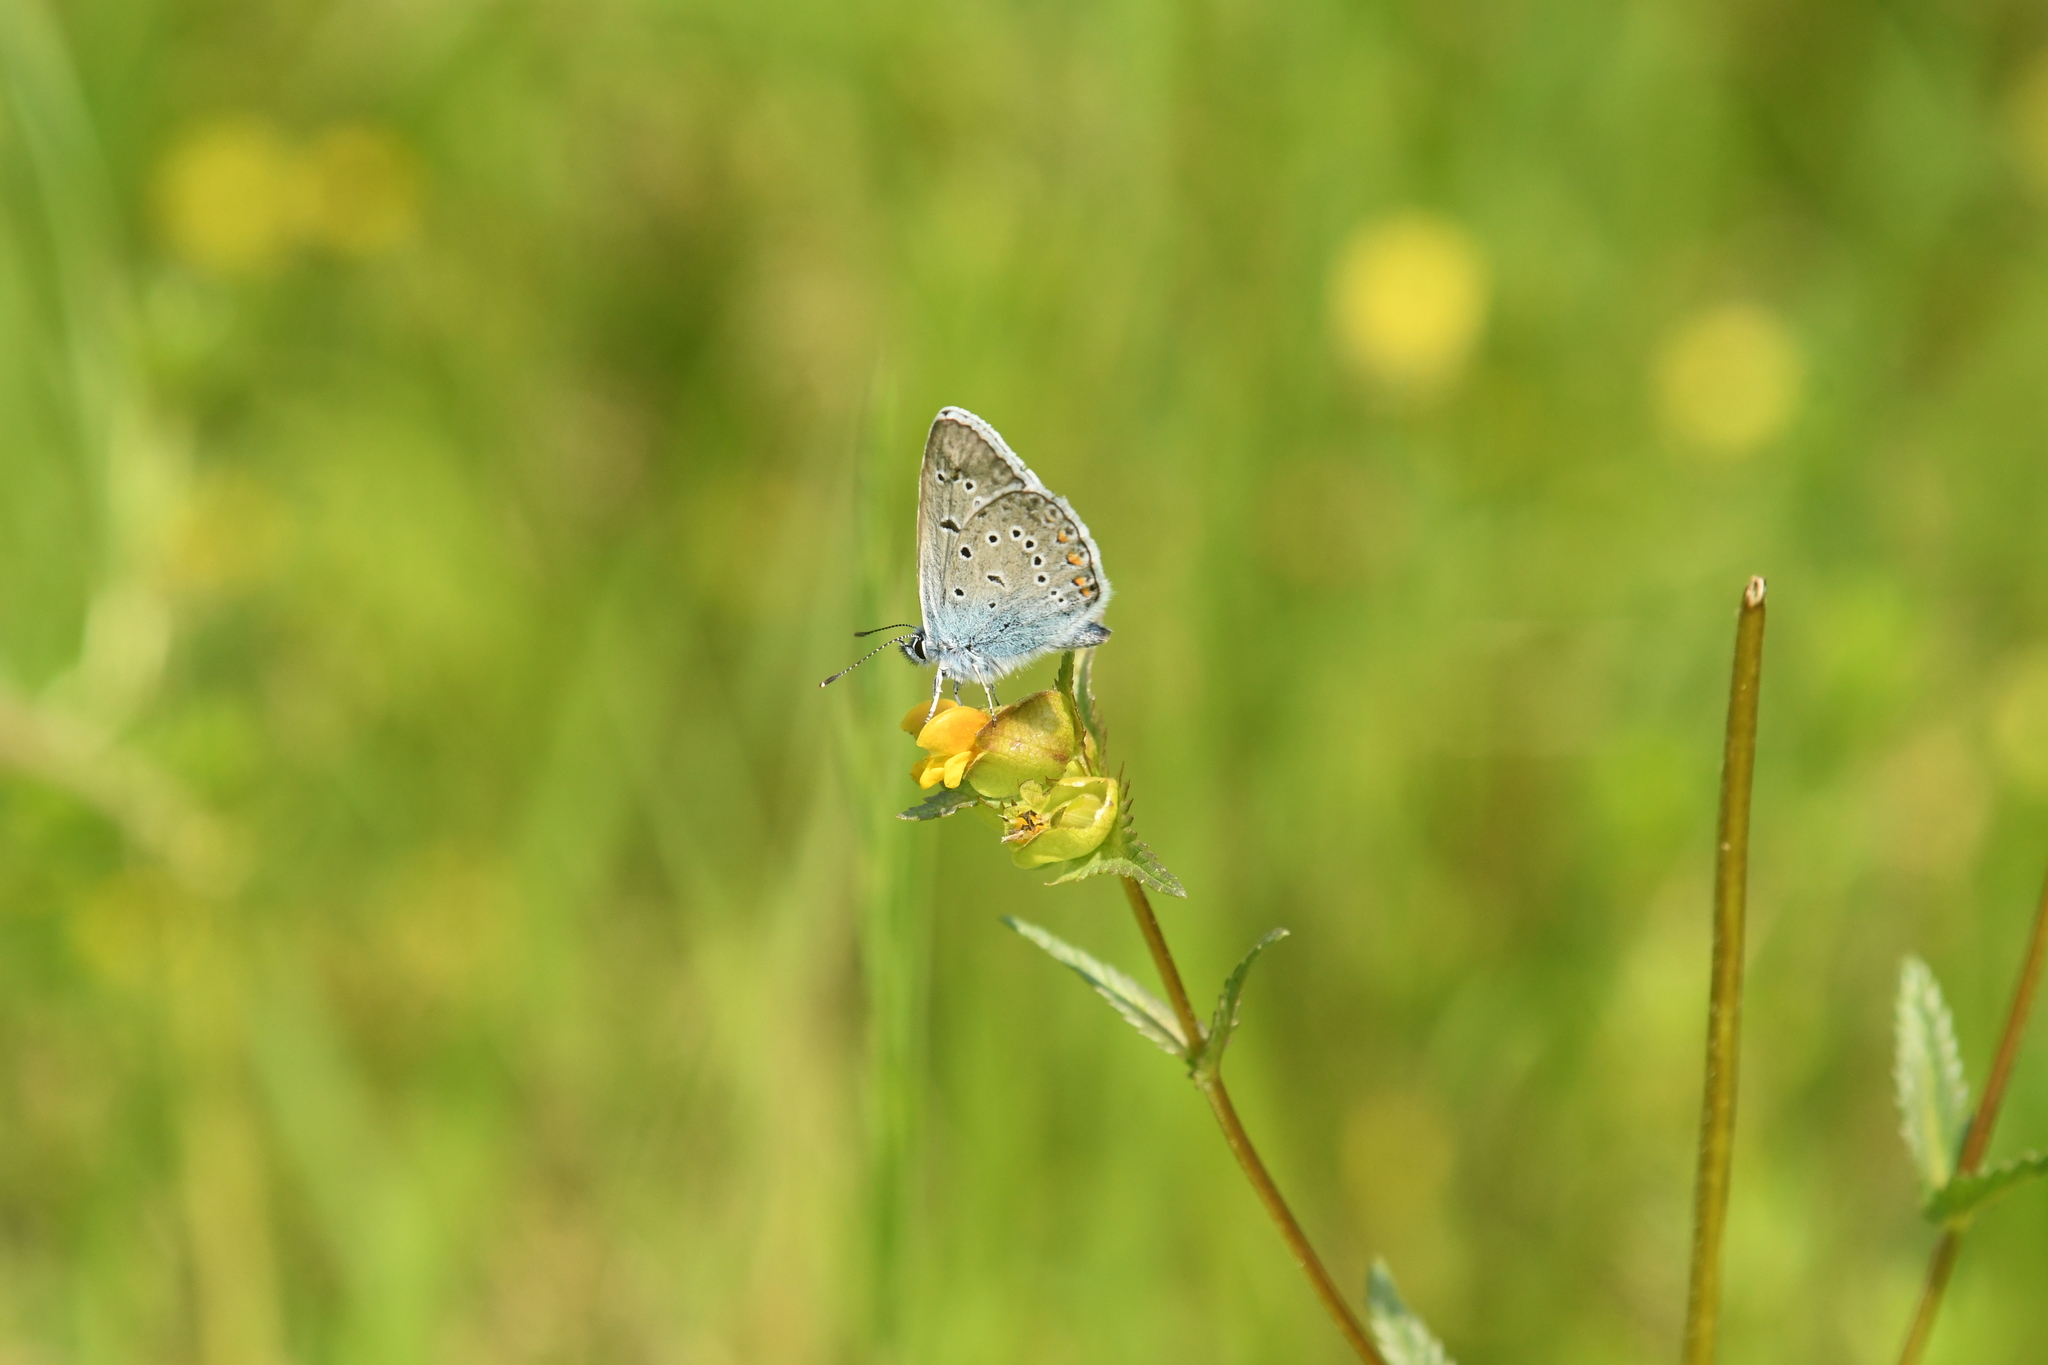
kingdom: Animalia
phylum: Arthropoda
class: Insecta
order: Lepidoptera
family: Lycaenidae
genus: Plebejus
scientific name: Plebejus amanda
